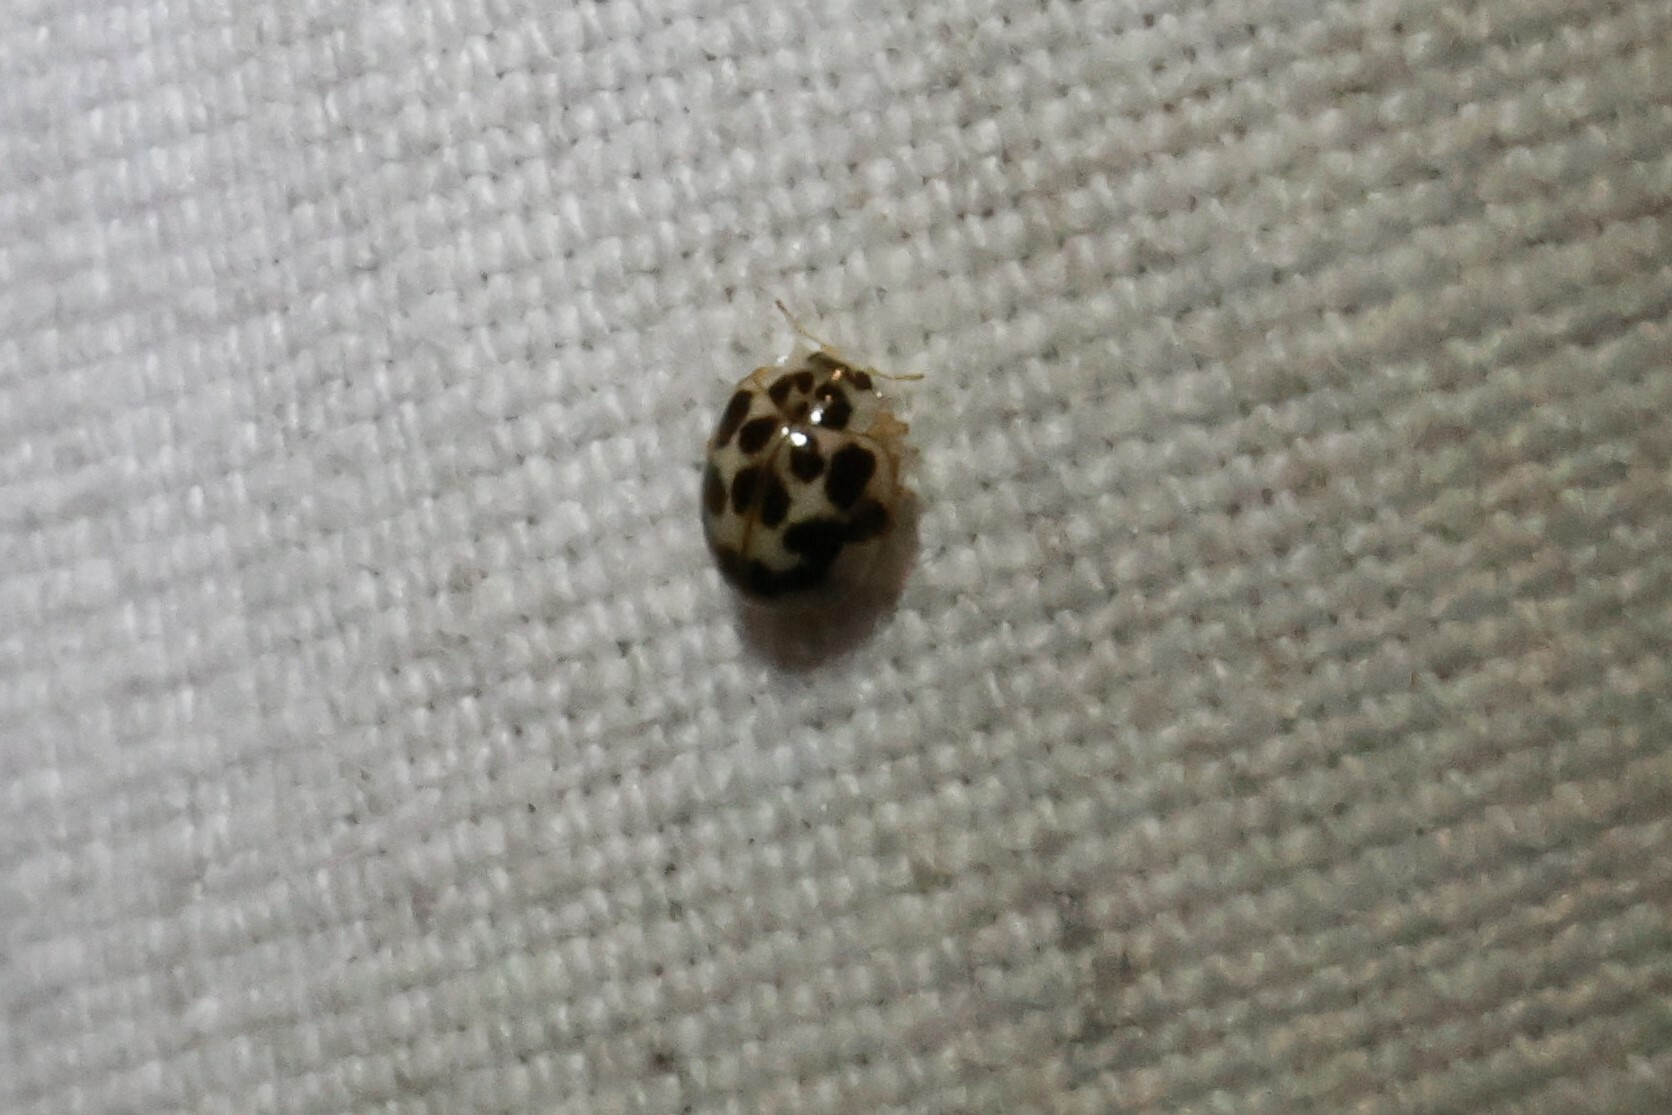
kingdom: Animalia
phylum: Arthropoda
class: Insecta
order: Coleoptera
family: Coccinellidae
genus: Psyllobora
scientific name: Psyllobora vigintimaculata
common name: Ladybird beetle
